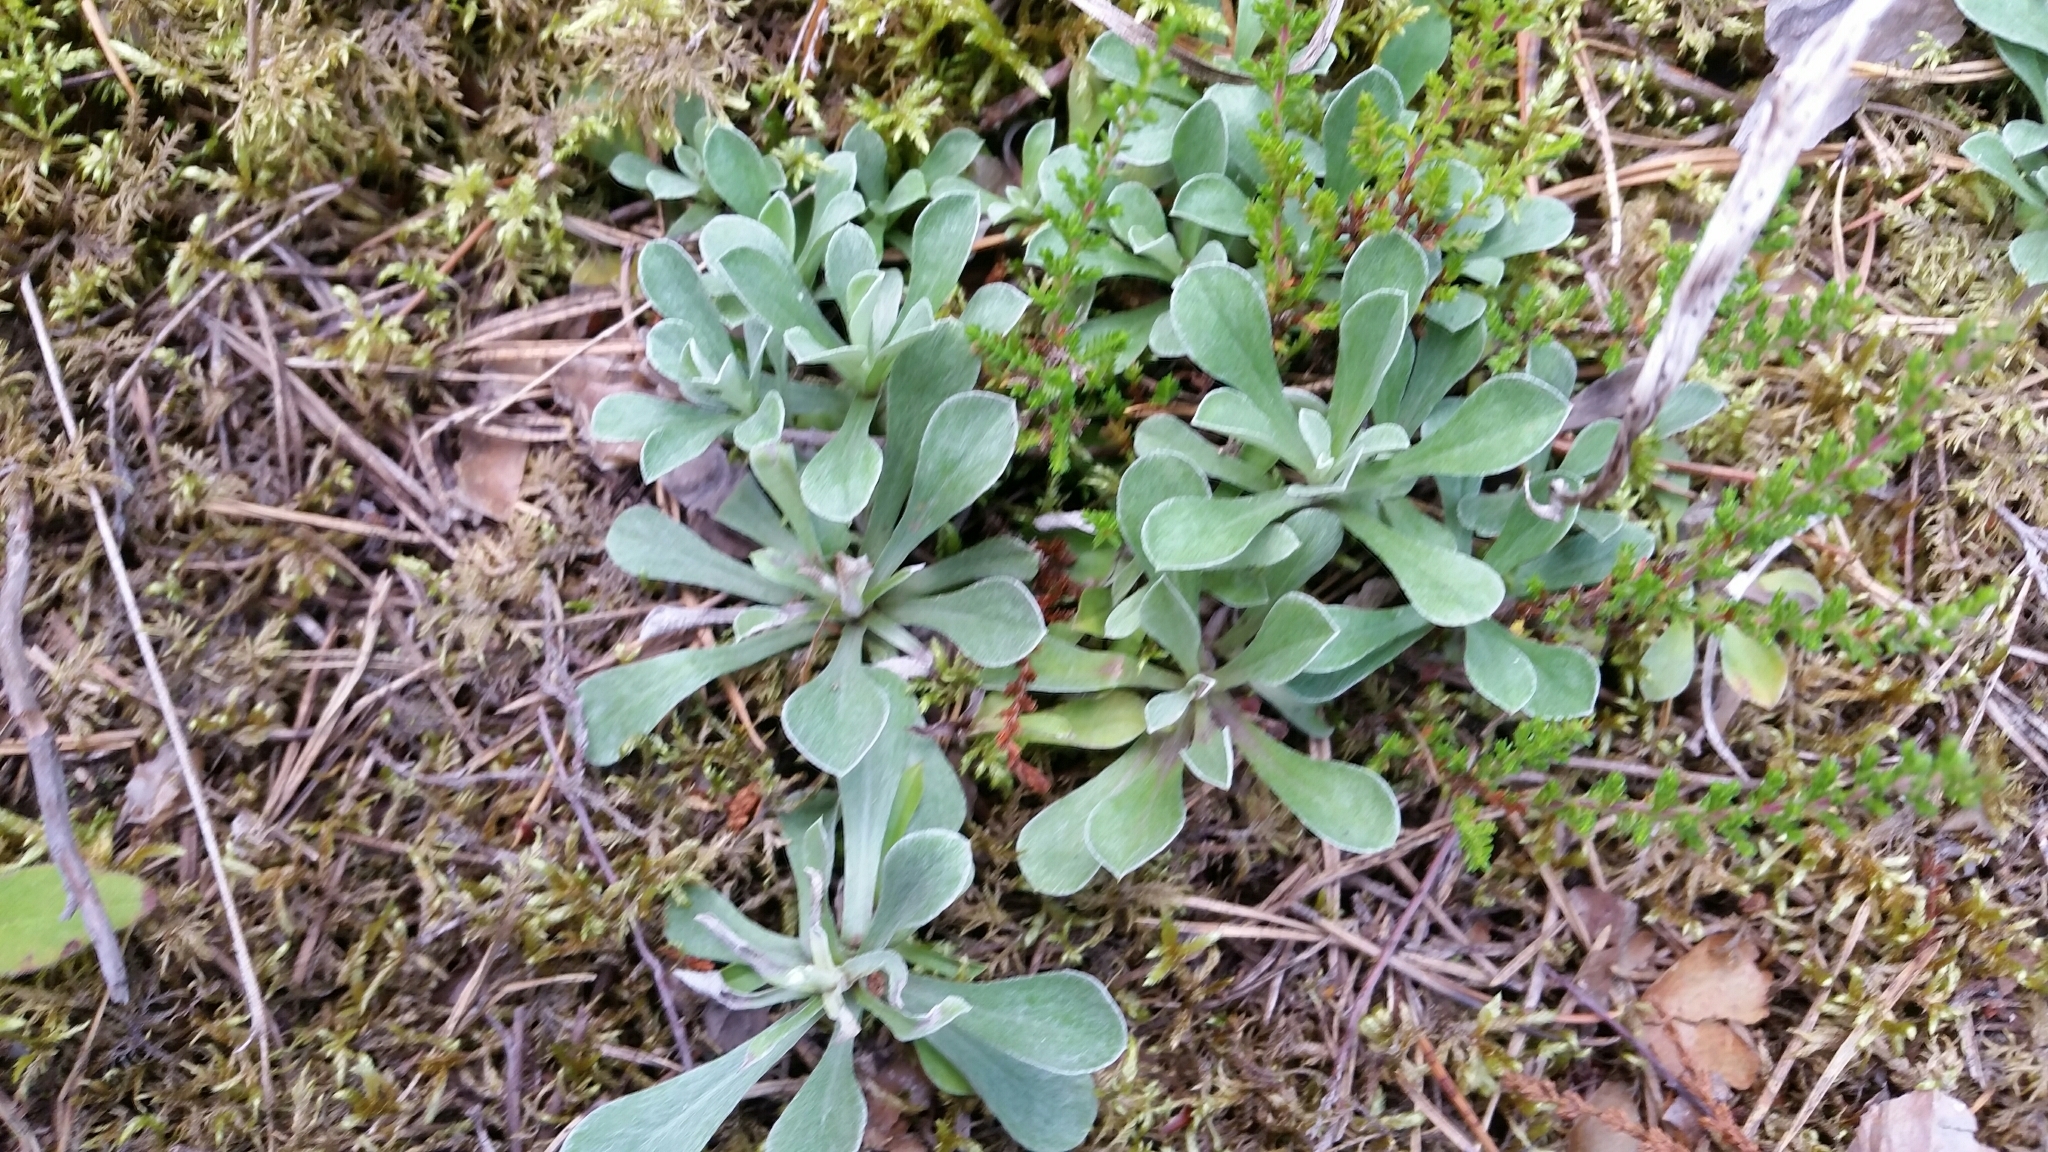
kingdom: Plantae
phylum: Tracheophyta
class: Magnoliopsida
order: Asterales
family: Asteraceae
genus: Antennaria
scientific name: Antennaria dioica
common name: Mountain everlasting
